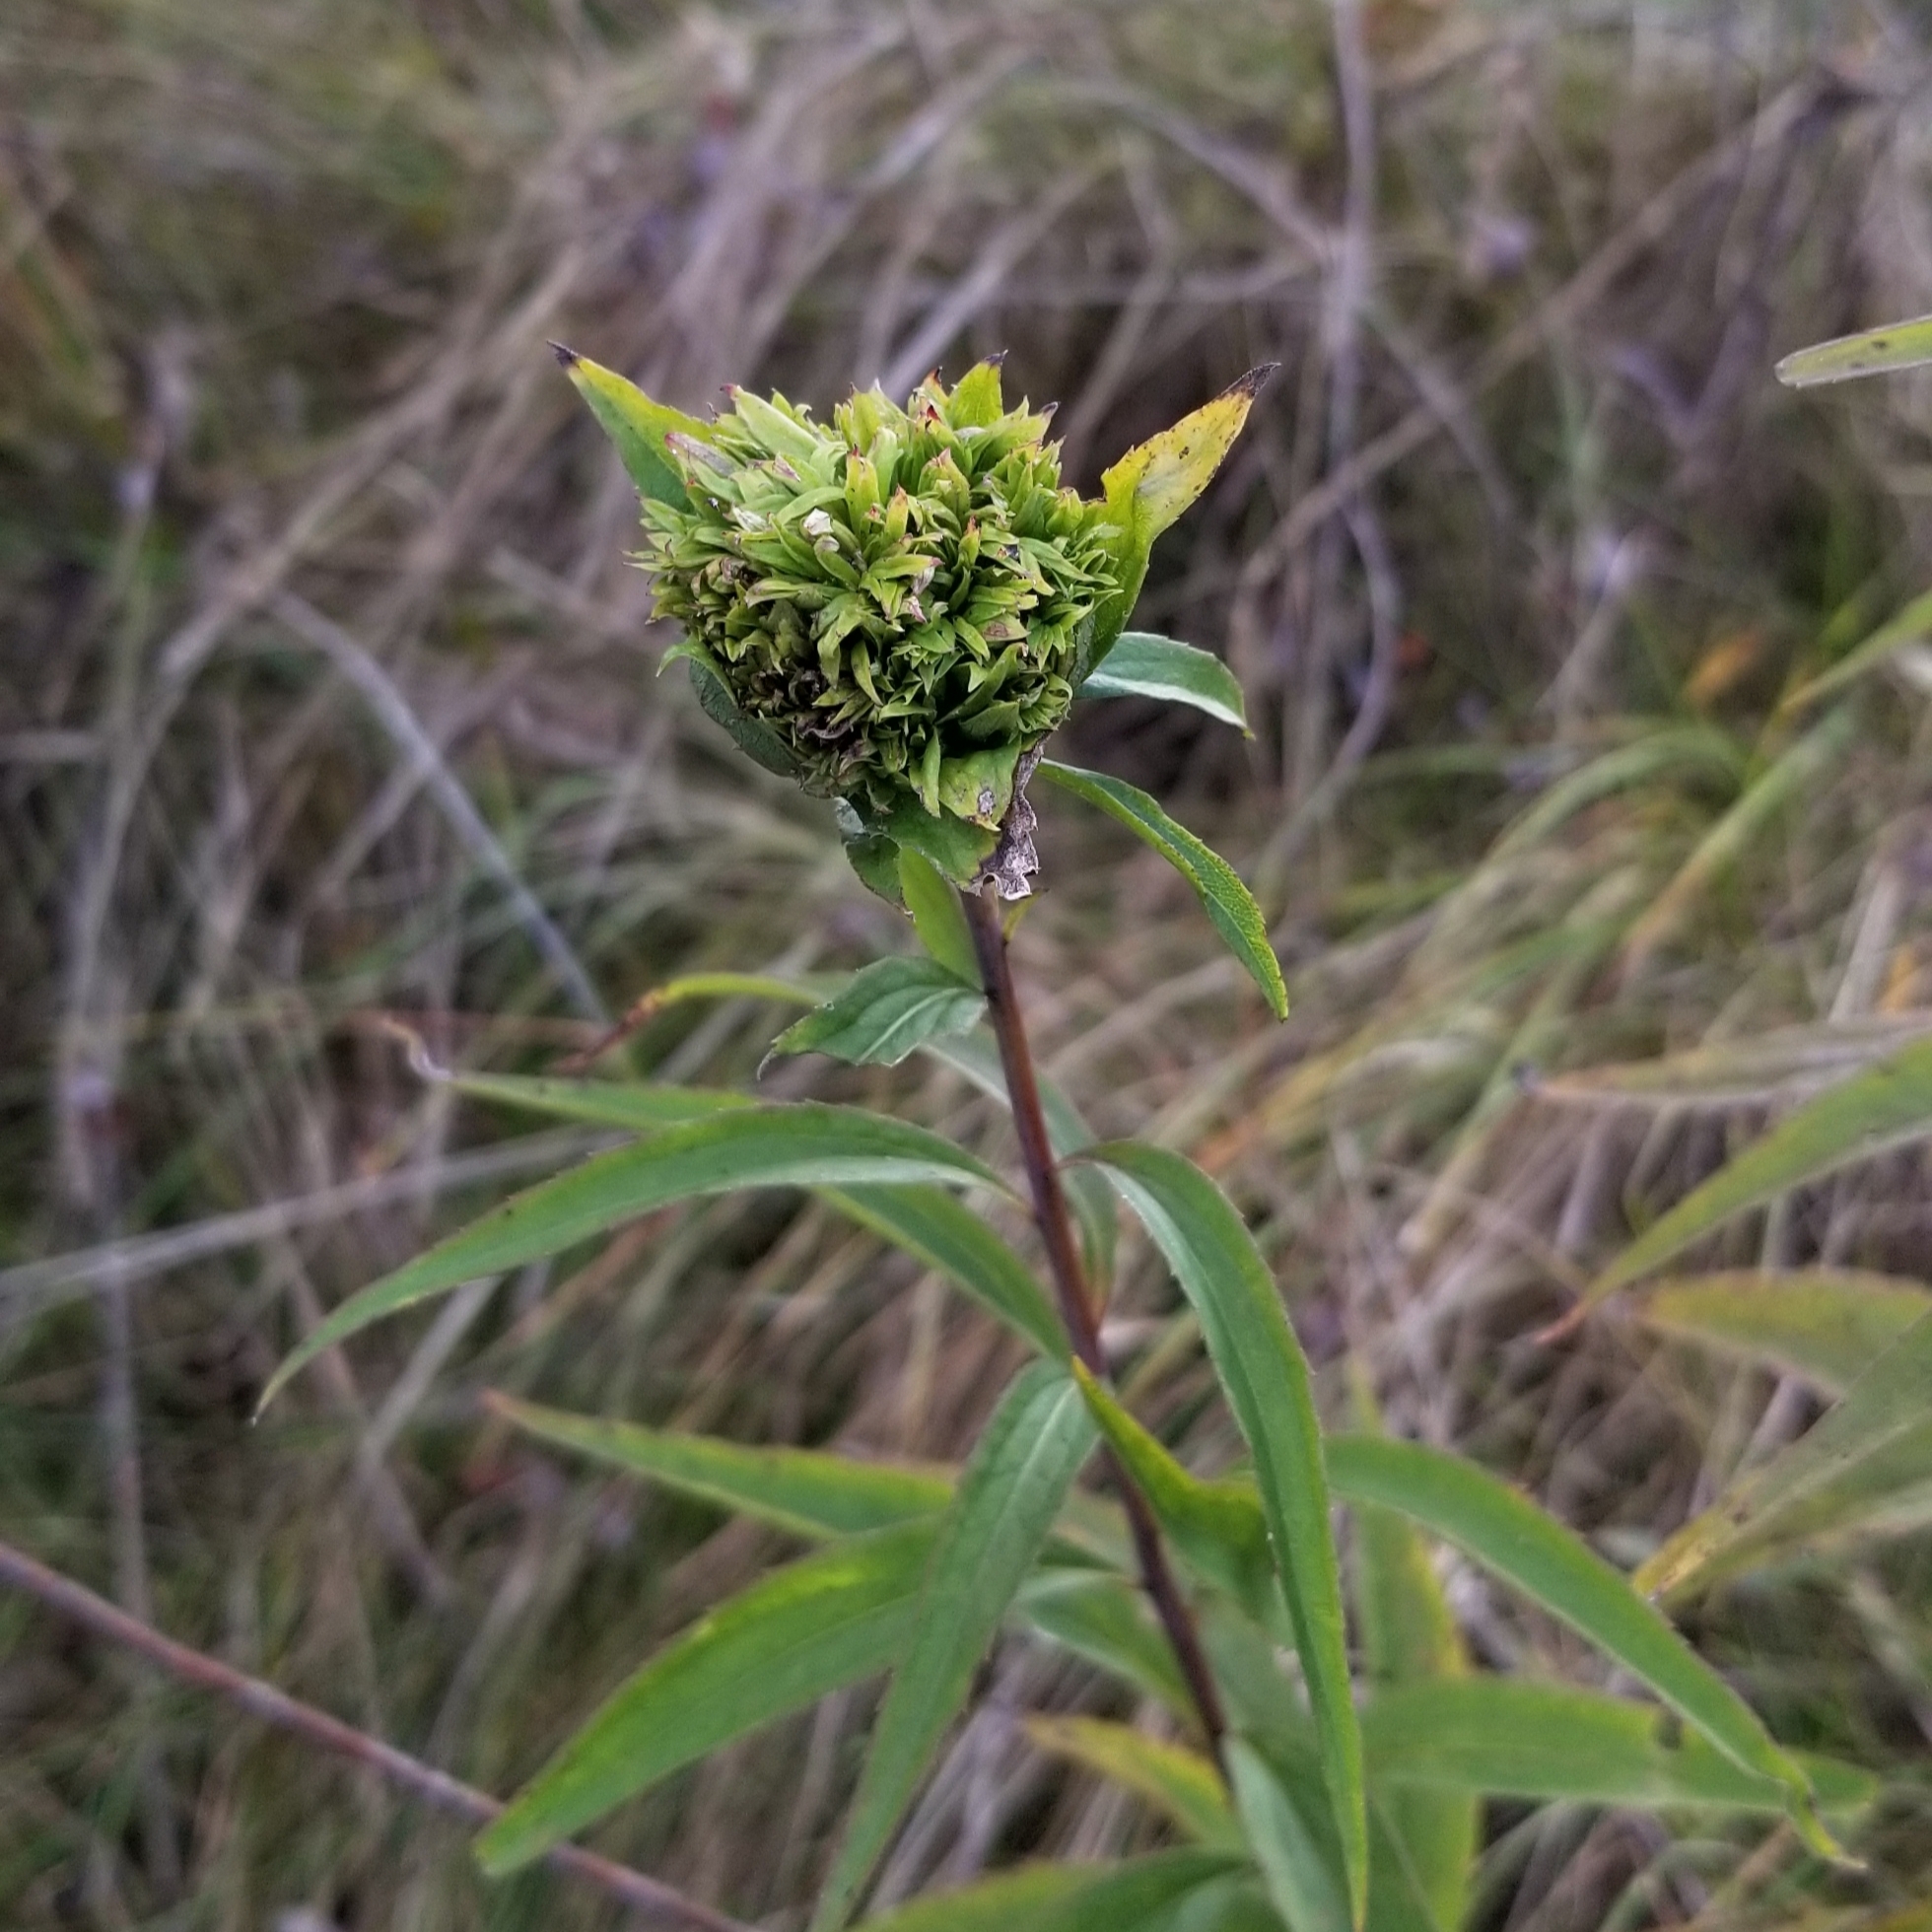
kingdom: Animalia
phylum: Arthropoda
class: Insecta
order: Diptera
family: Cecidomyiidae
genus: Rhopalomyia
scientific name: Rhopalomyia capitata
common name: Giant goldenrod bunch gall midge
